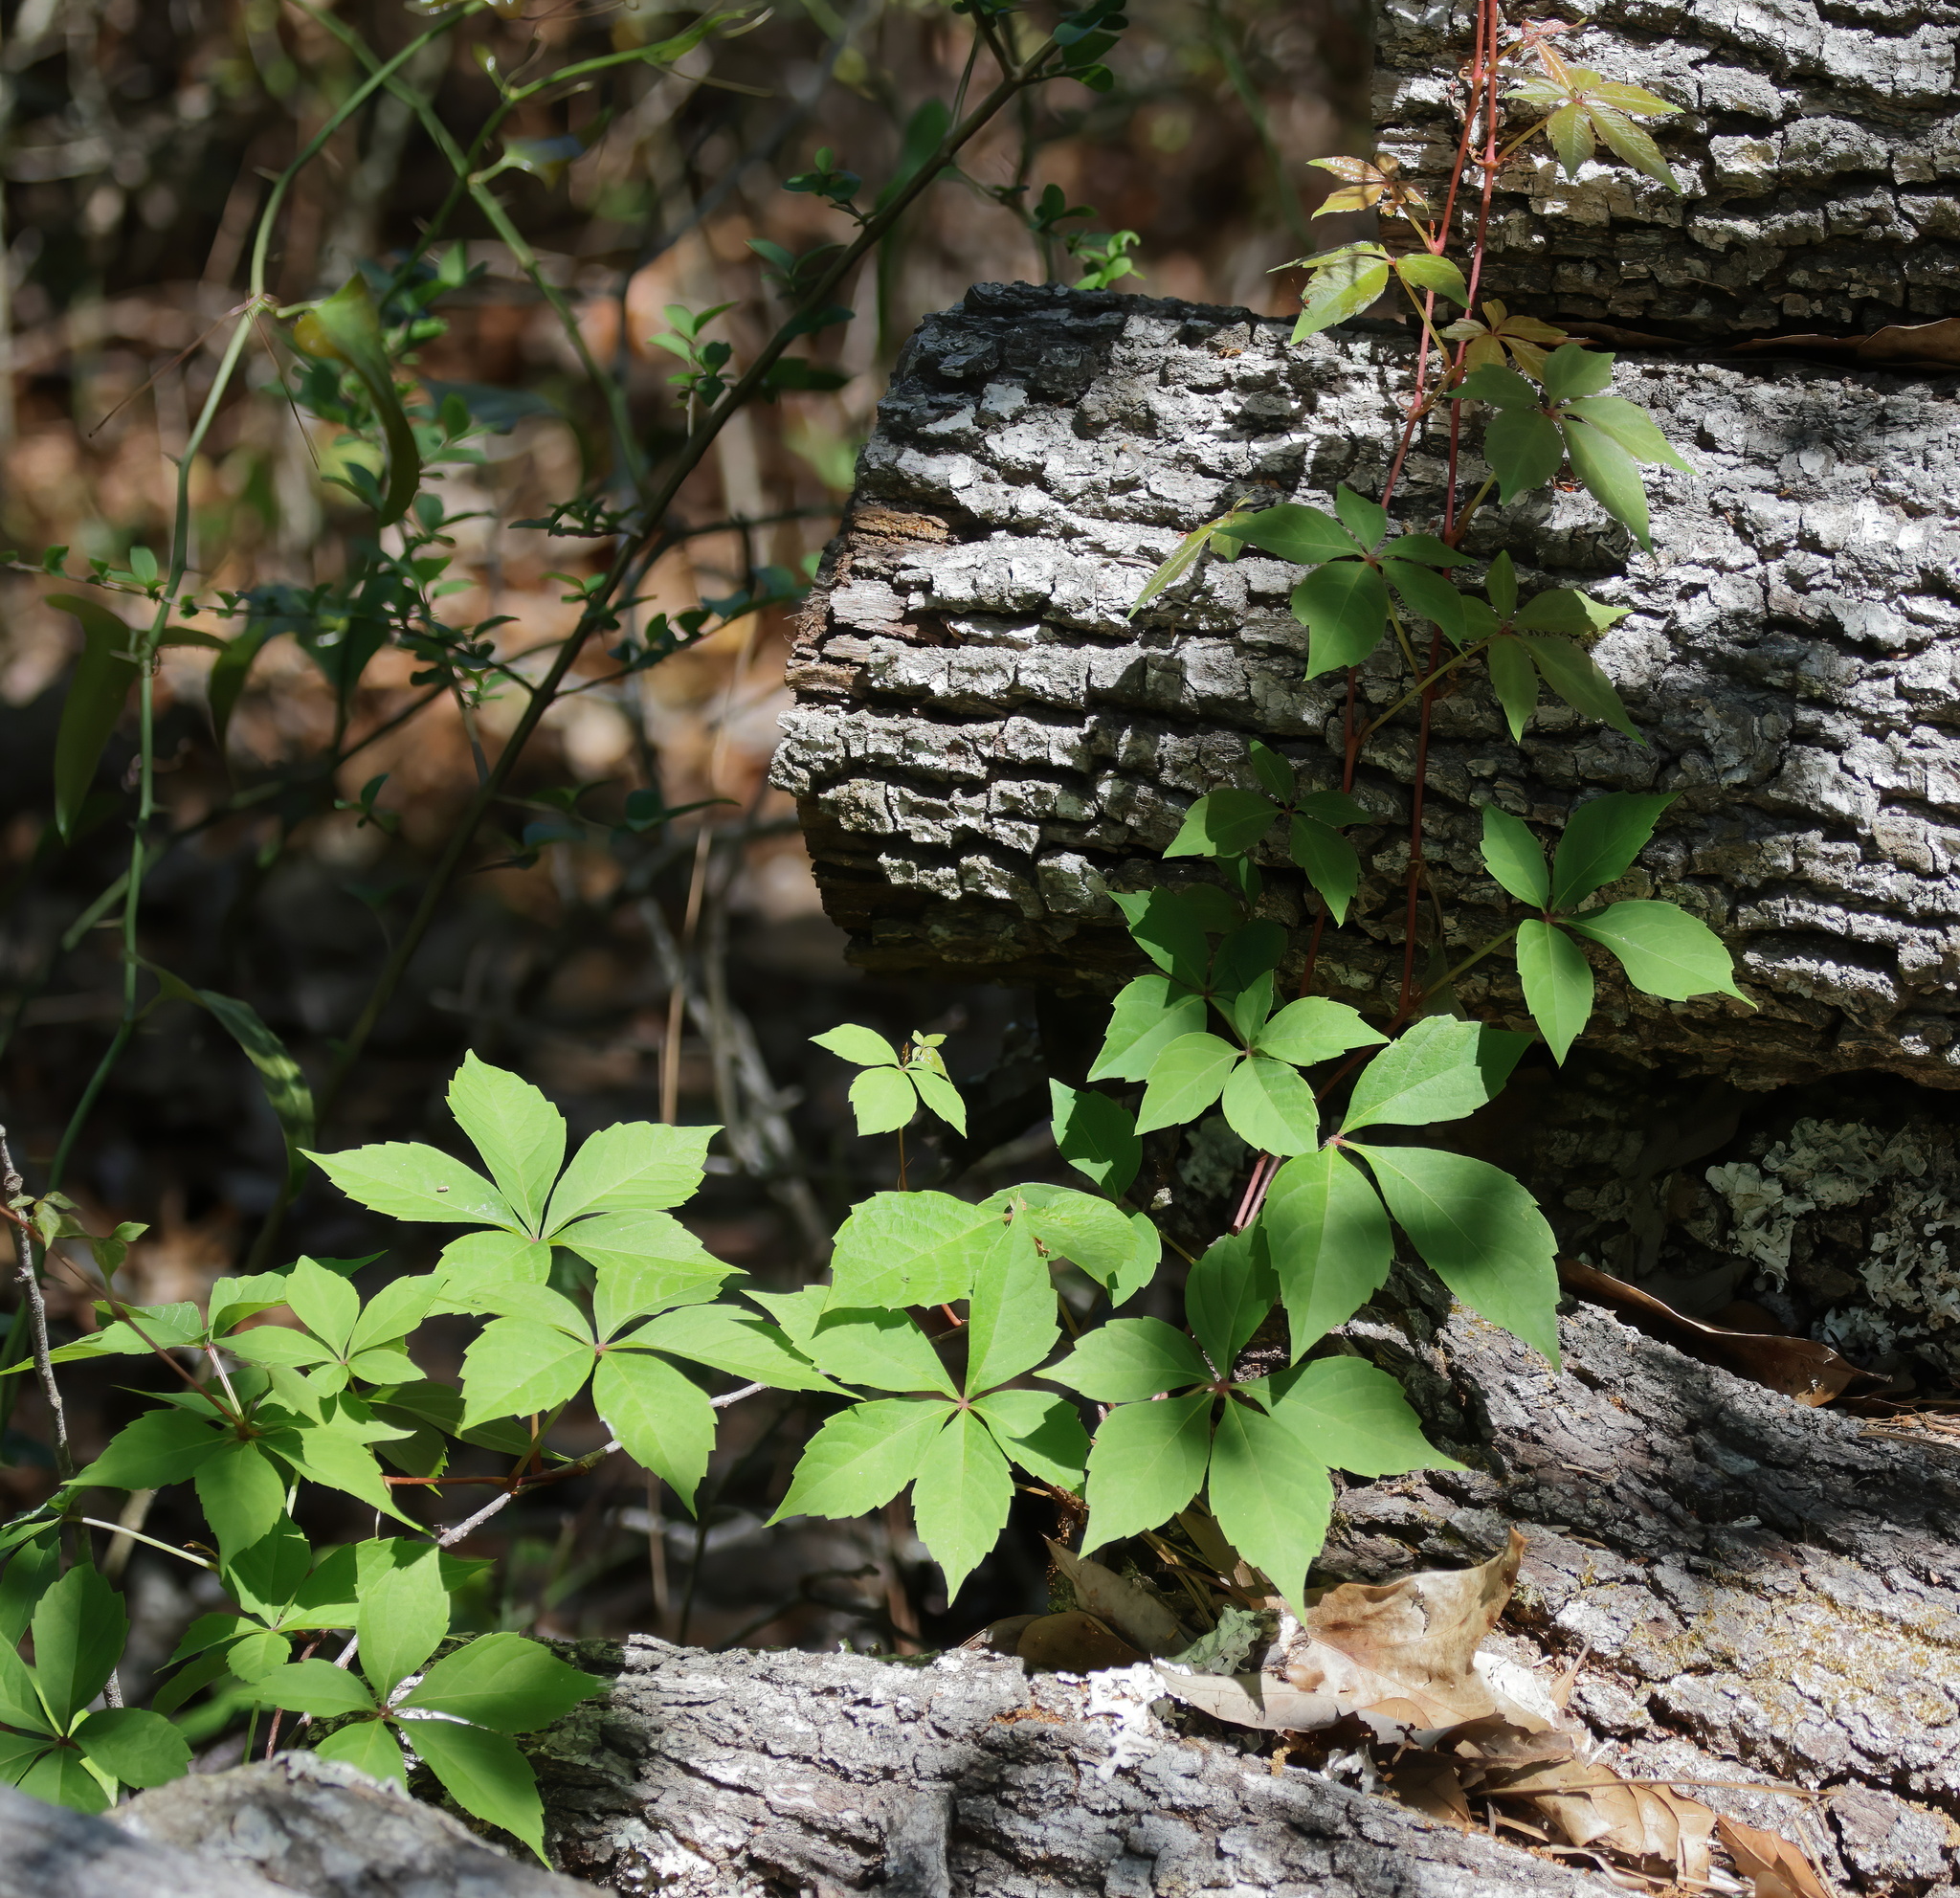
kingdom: Plantae
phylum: Tracheophyta
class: Magnoliopsida
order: Vitales
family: Vitaceae
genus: Parthenocissus
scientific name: Parthenocissus quinquefolia
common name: Virginia-creeper
